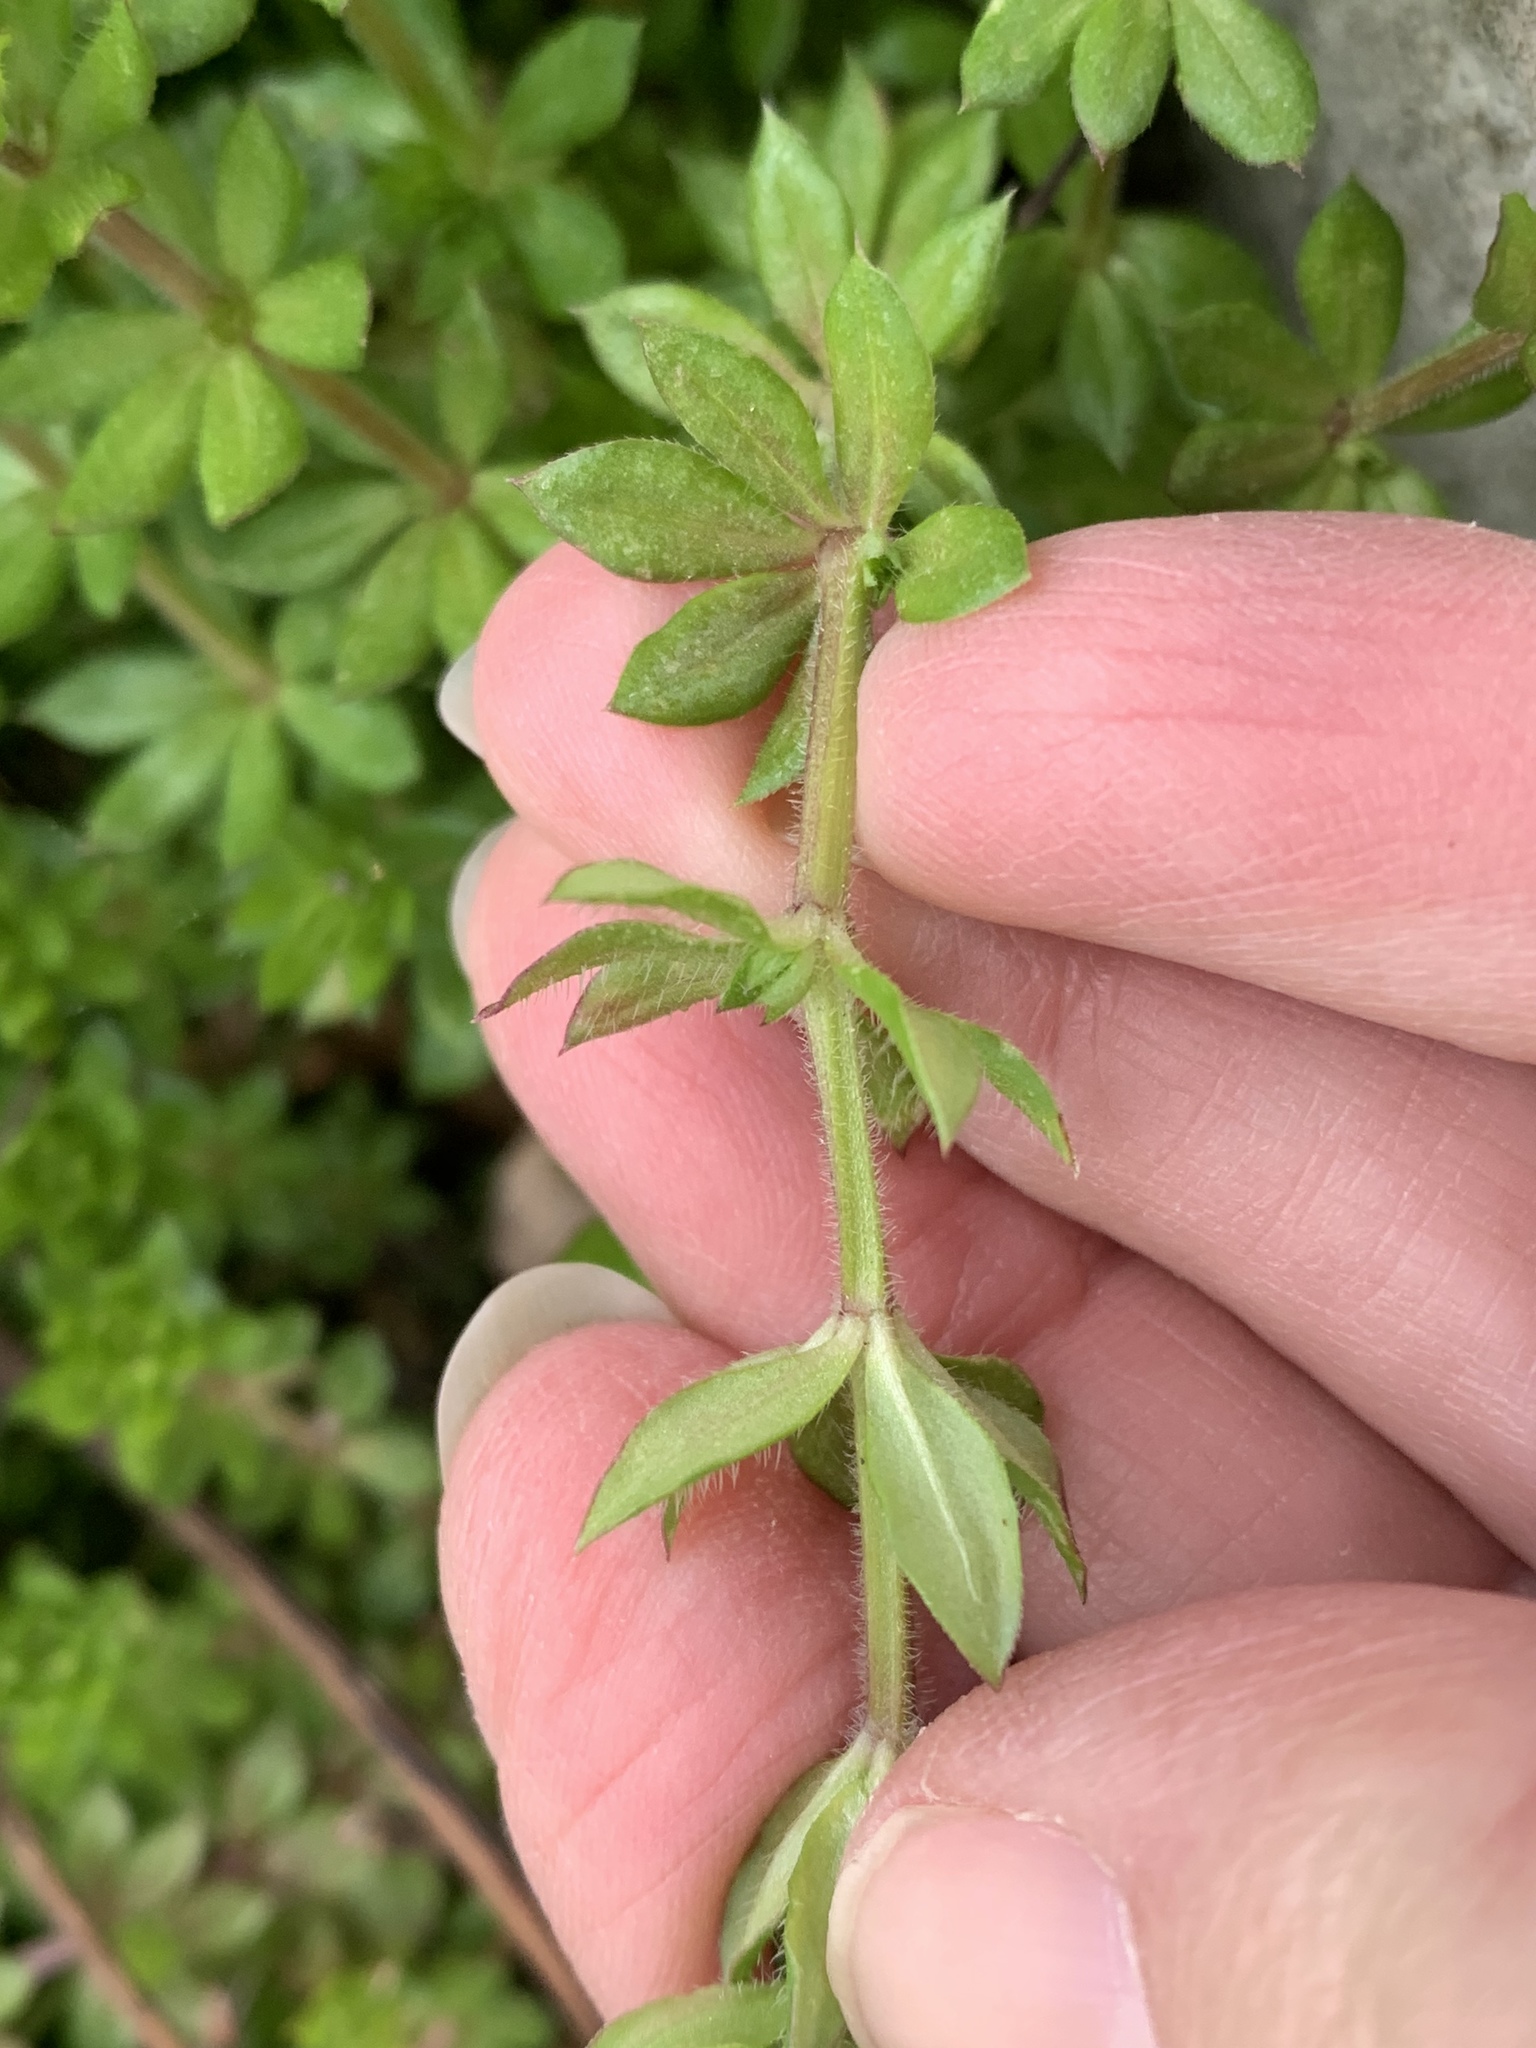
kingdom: Plantae
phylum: Tracheophyta
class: Magnoliopsida
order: Gentianales
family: Rubiaceae
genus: Sherardia
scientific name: Sherardia arvensis
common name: Field madder
